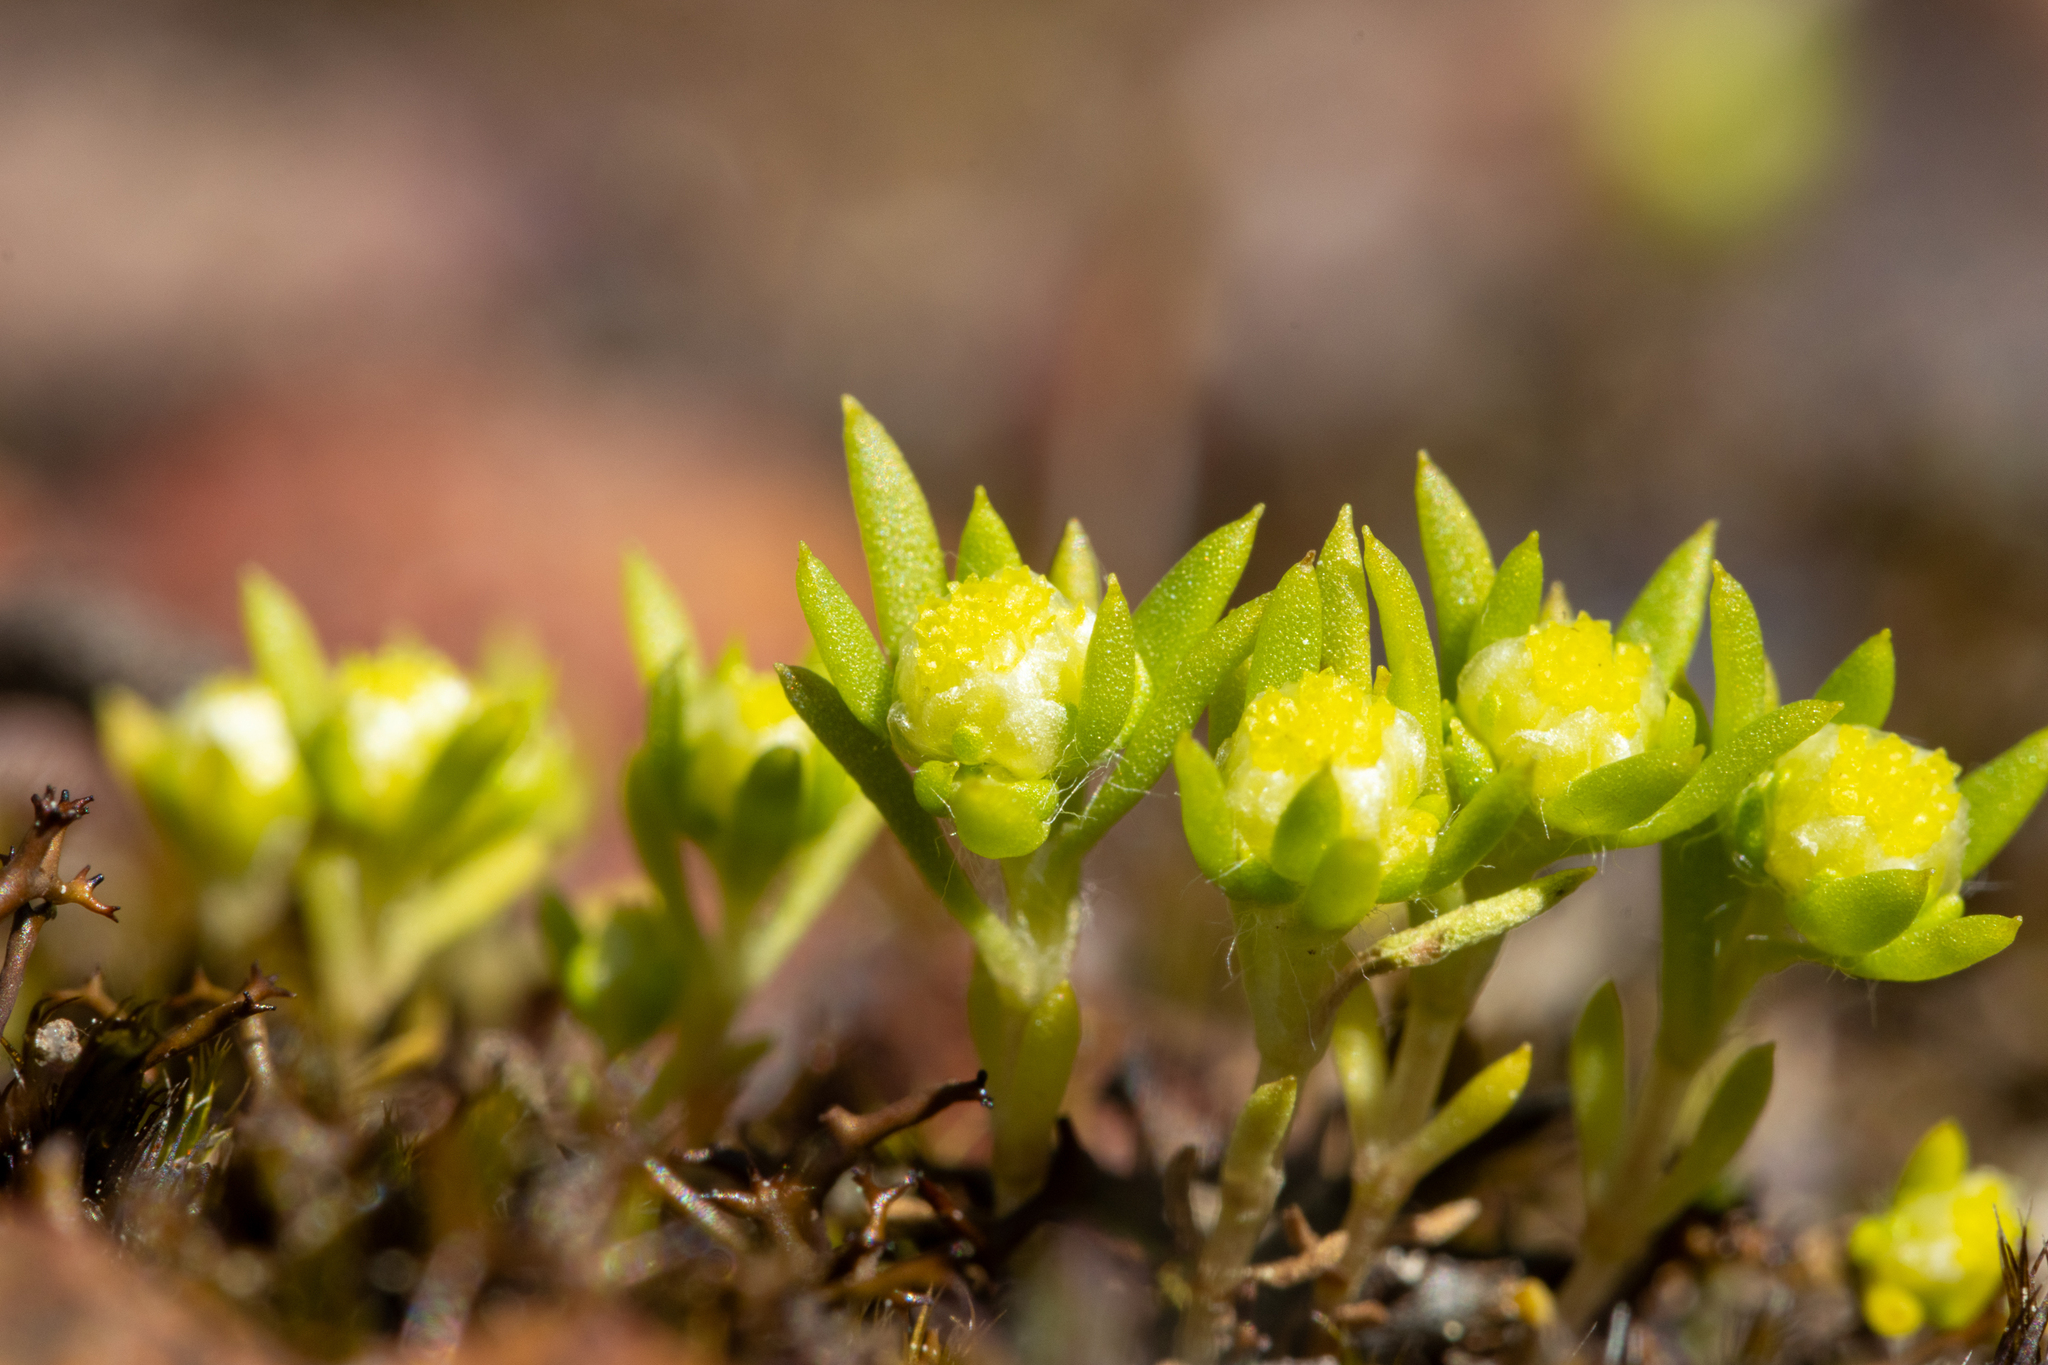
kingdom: Plantae
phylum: Tracheophyta
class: Magnoliopsida
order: Asterales
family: Asteraceae
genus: Siloxerus
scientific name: Siloxerus multiflorus
